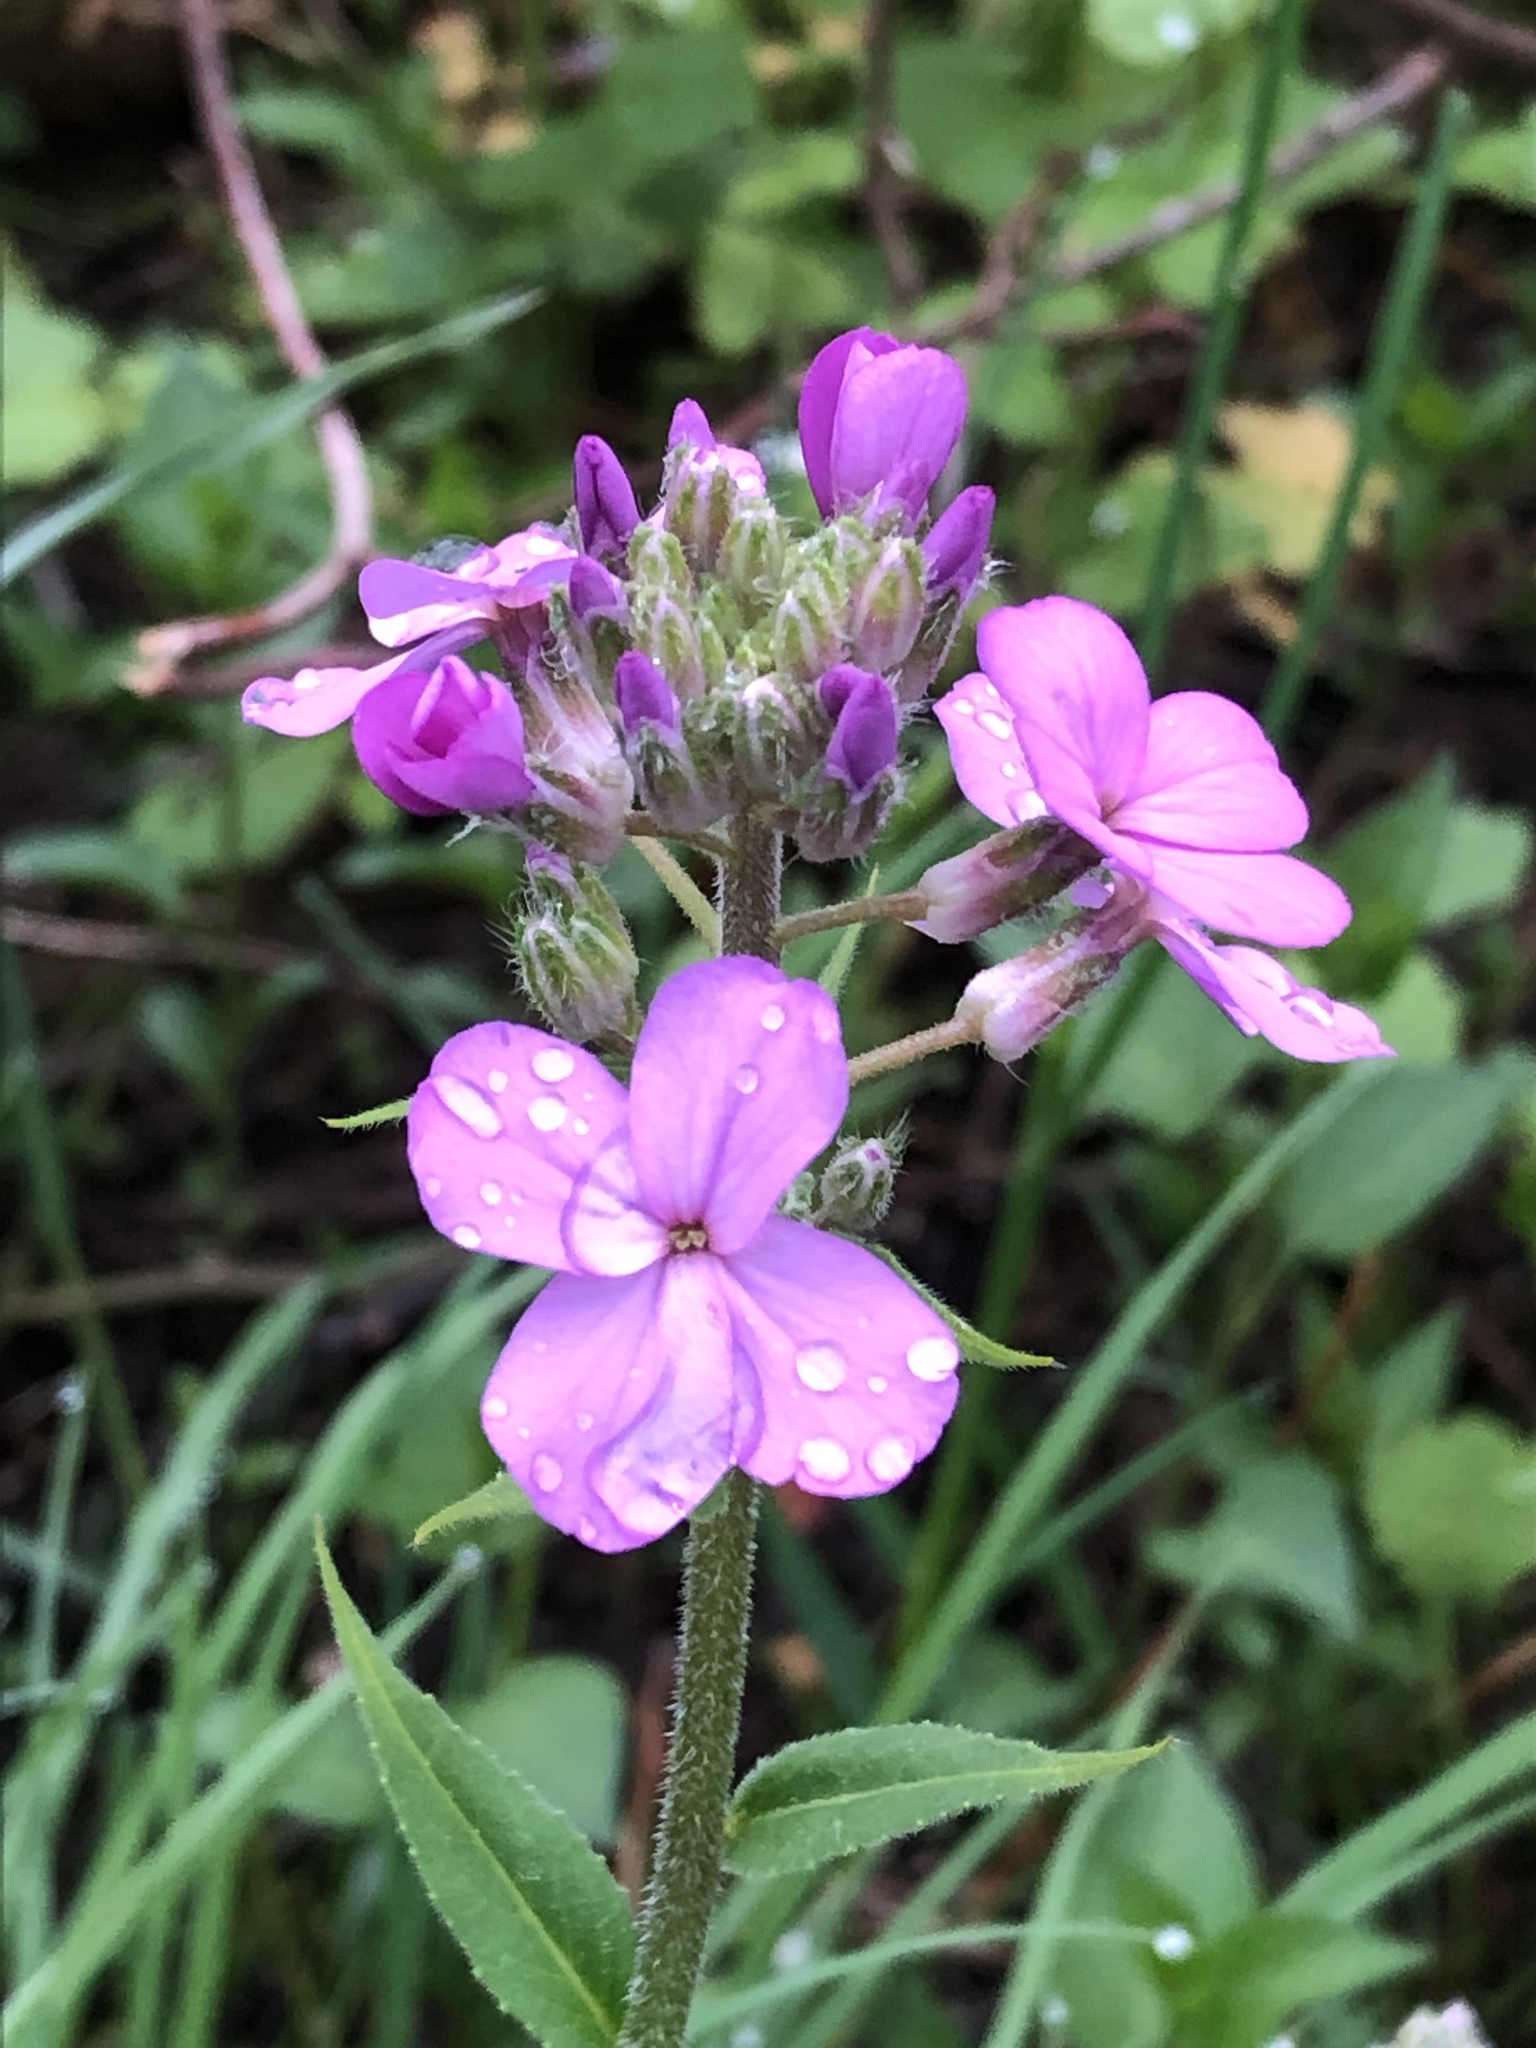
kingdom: Plantae
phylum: Tracheophyta
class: Magnoliopsida
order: Brassicales
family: Brassicaceae
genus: Hesperis
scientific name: Hesperis matronalis
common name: Dame's-violet
